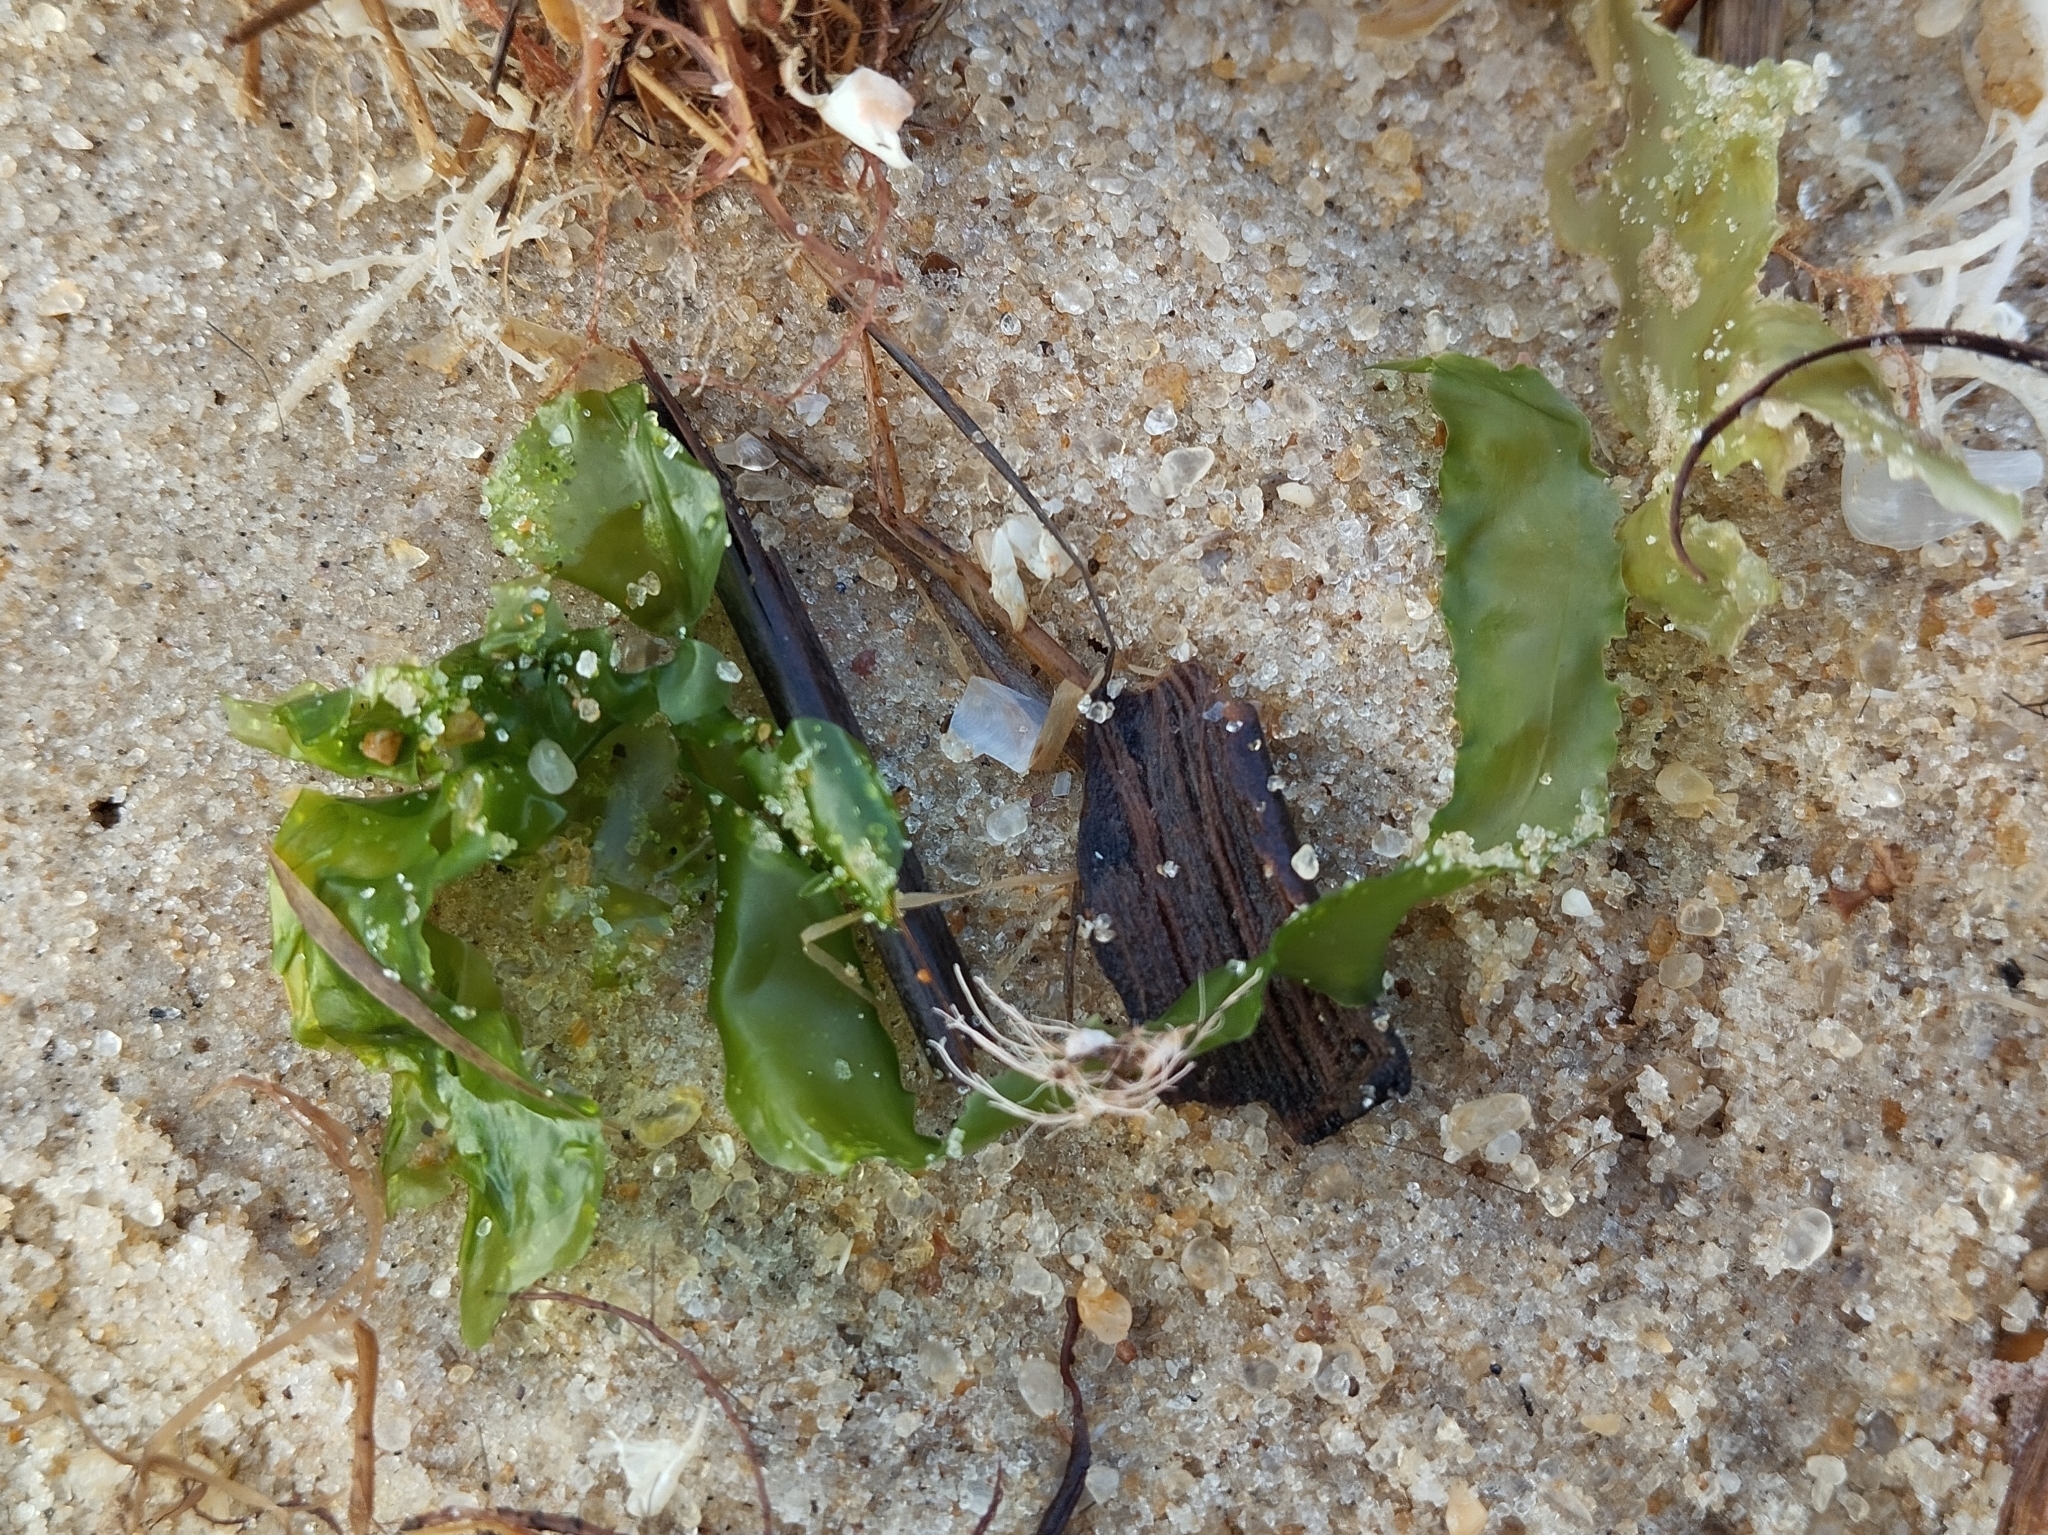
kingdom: Plantae
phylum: Chlorophyta
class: Ulvophyceae
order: Ulvales
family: Ulvaceae
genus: Ulva
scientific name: Ulva lactuca
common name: Sea lettuce
